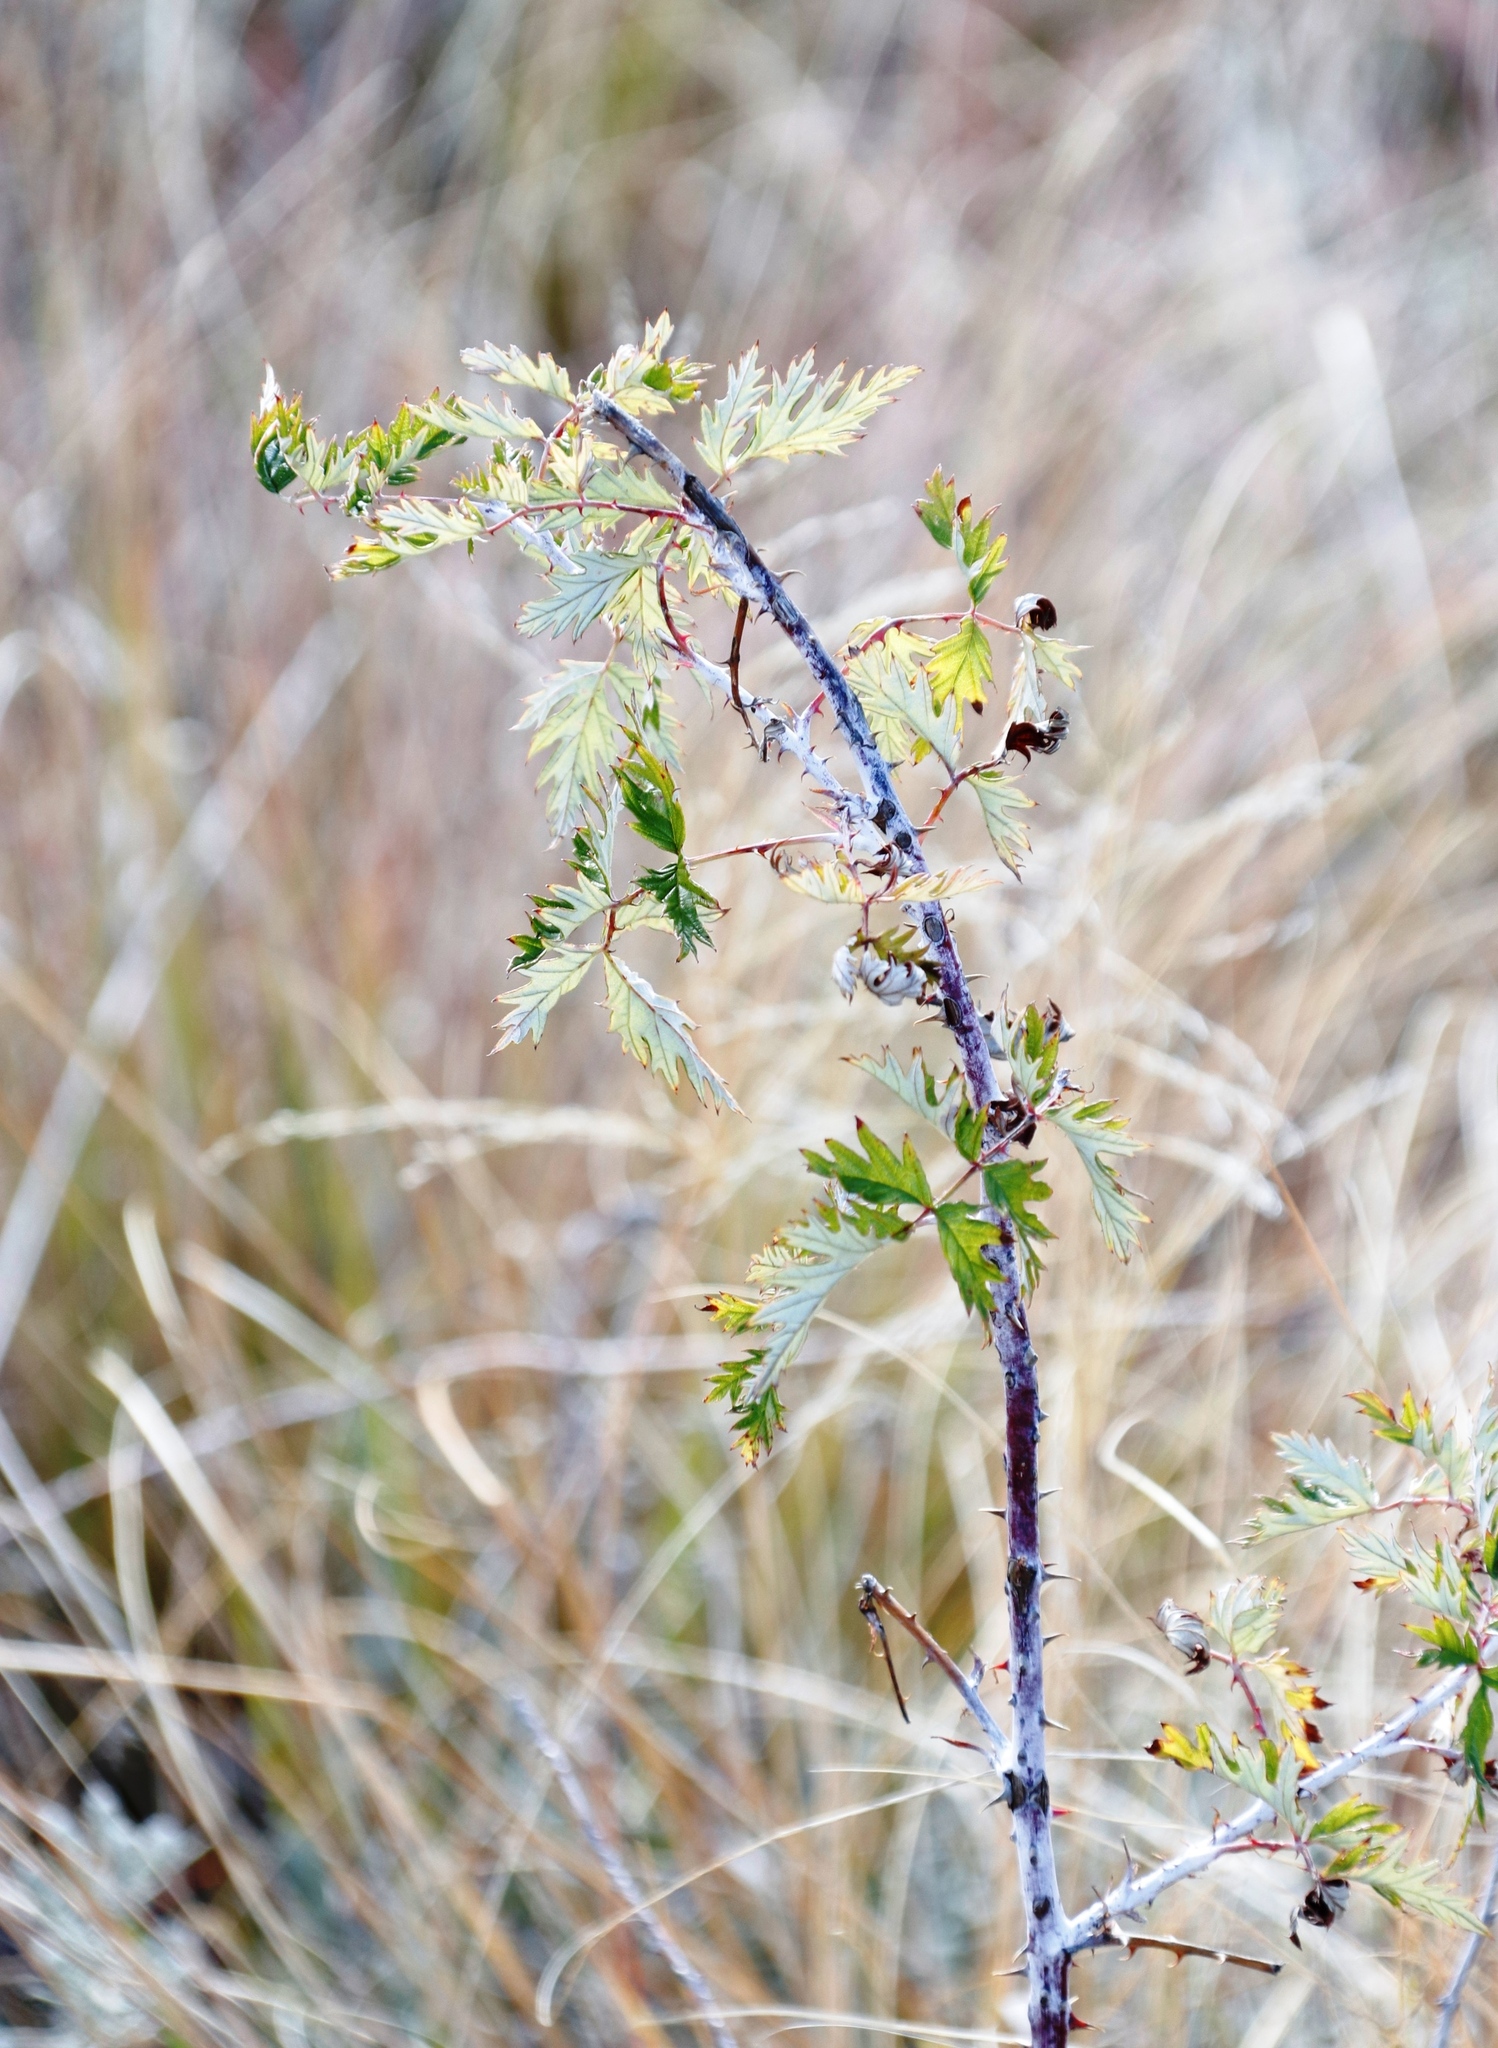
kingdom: Plantae
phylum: Tracheophyta
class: Magnoliopsida
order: Rosales
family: Rosaceae
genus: Rubus
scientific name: Rubus ludwigii
